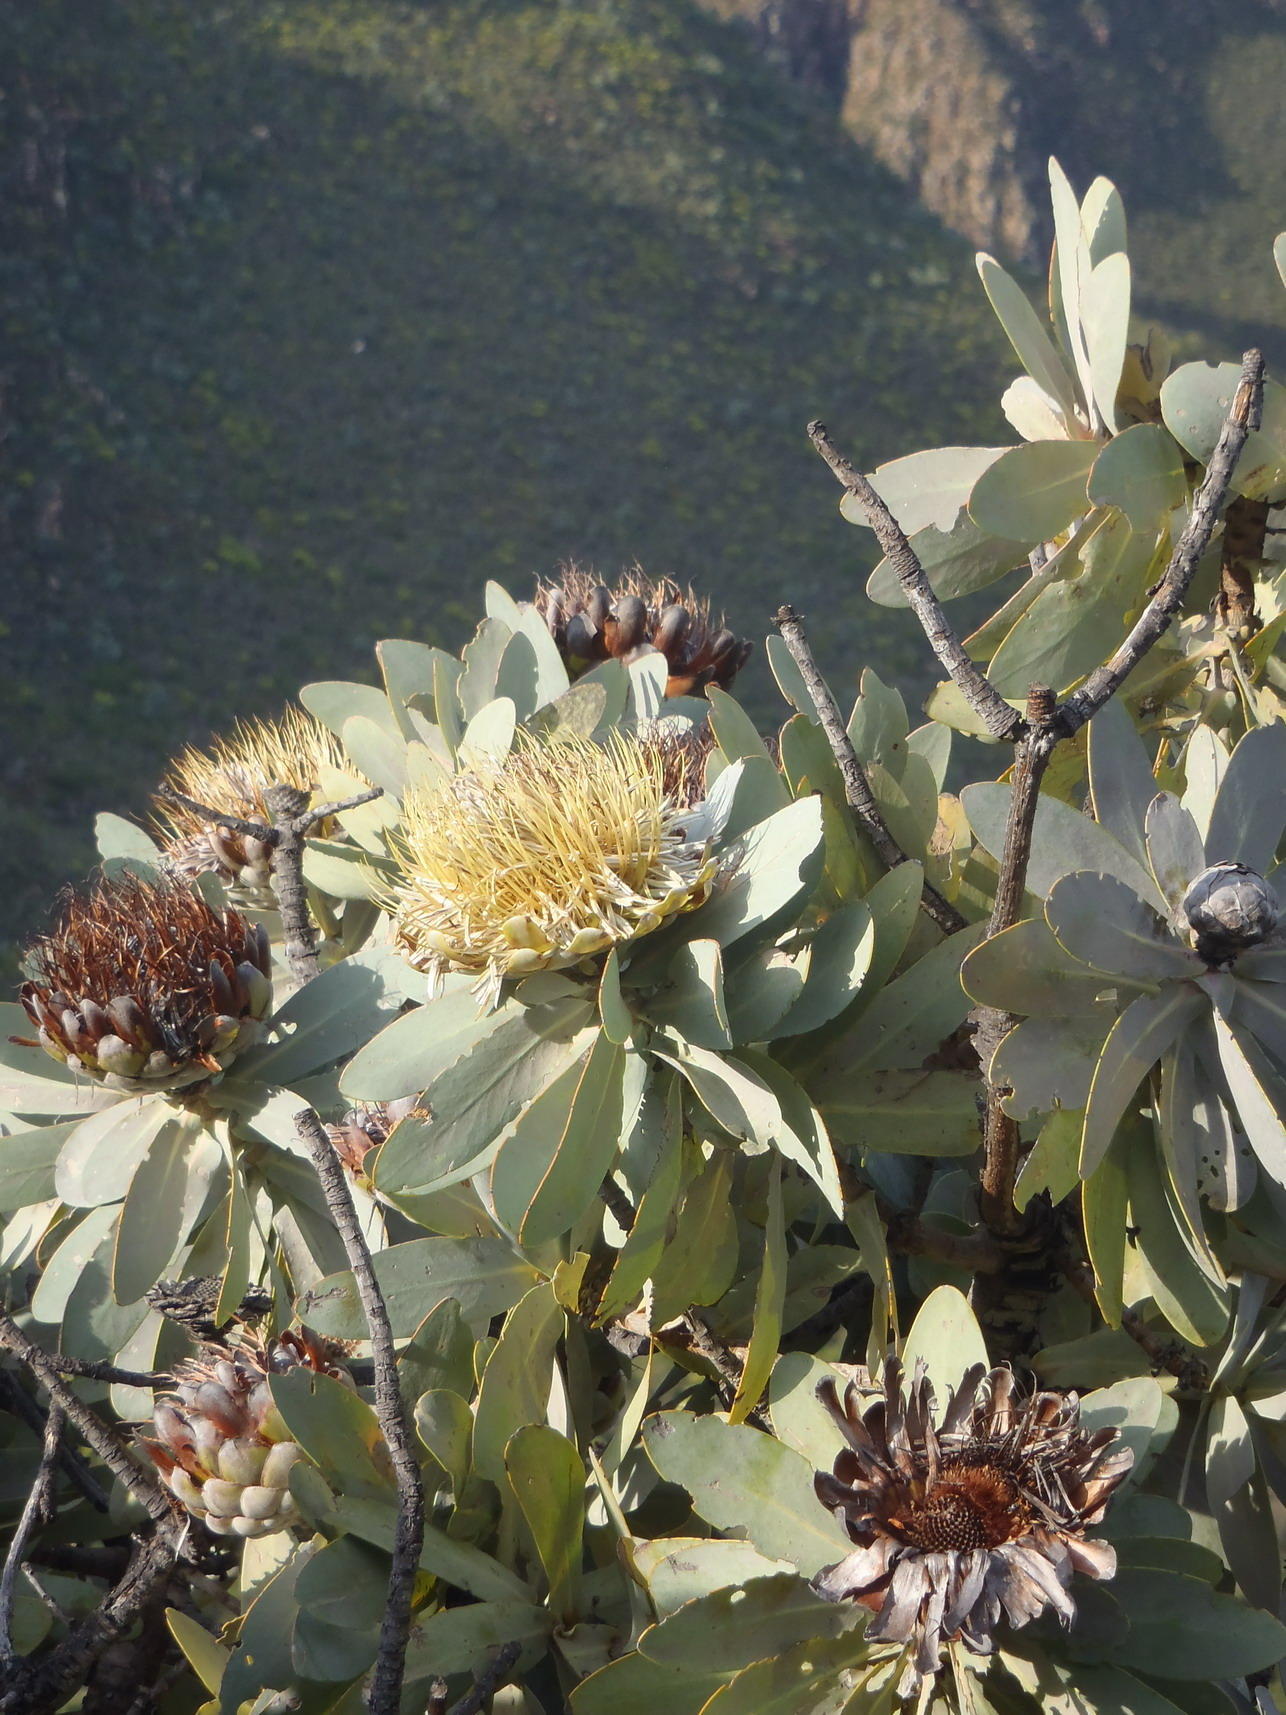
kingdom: Plantae
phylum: Tracheophyta
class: Magnoliopsida
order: Proteales
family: Proteaceae
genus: Protea
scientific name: Protea nitida
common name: Tree protea
